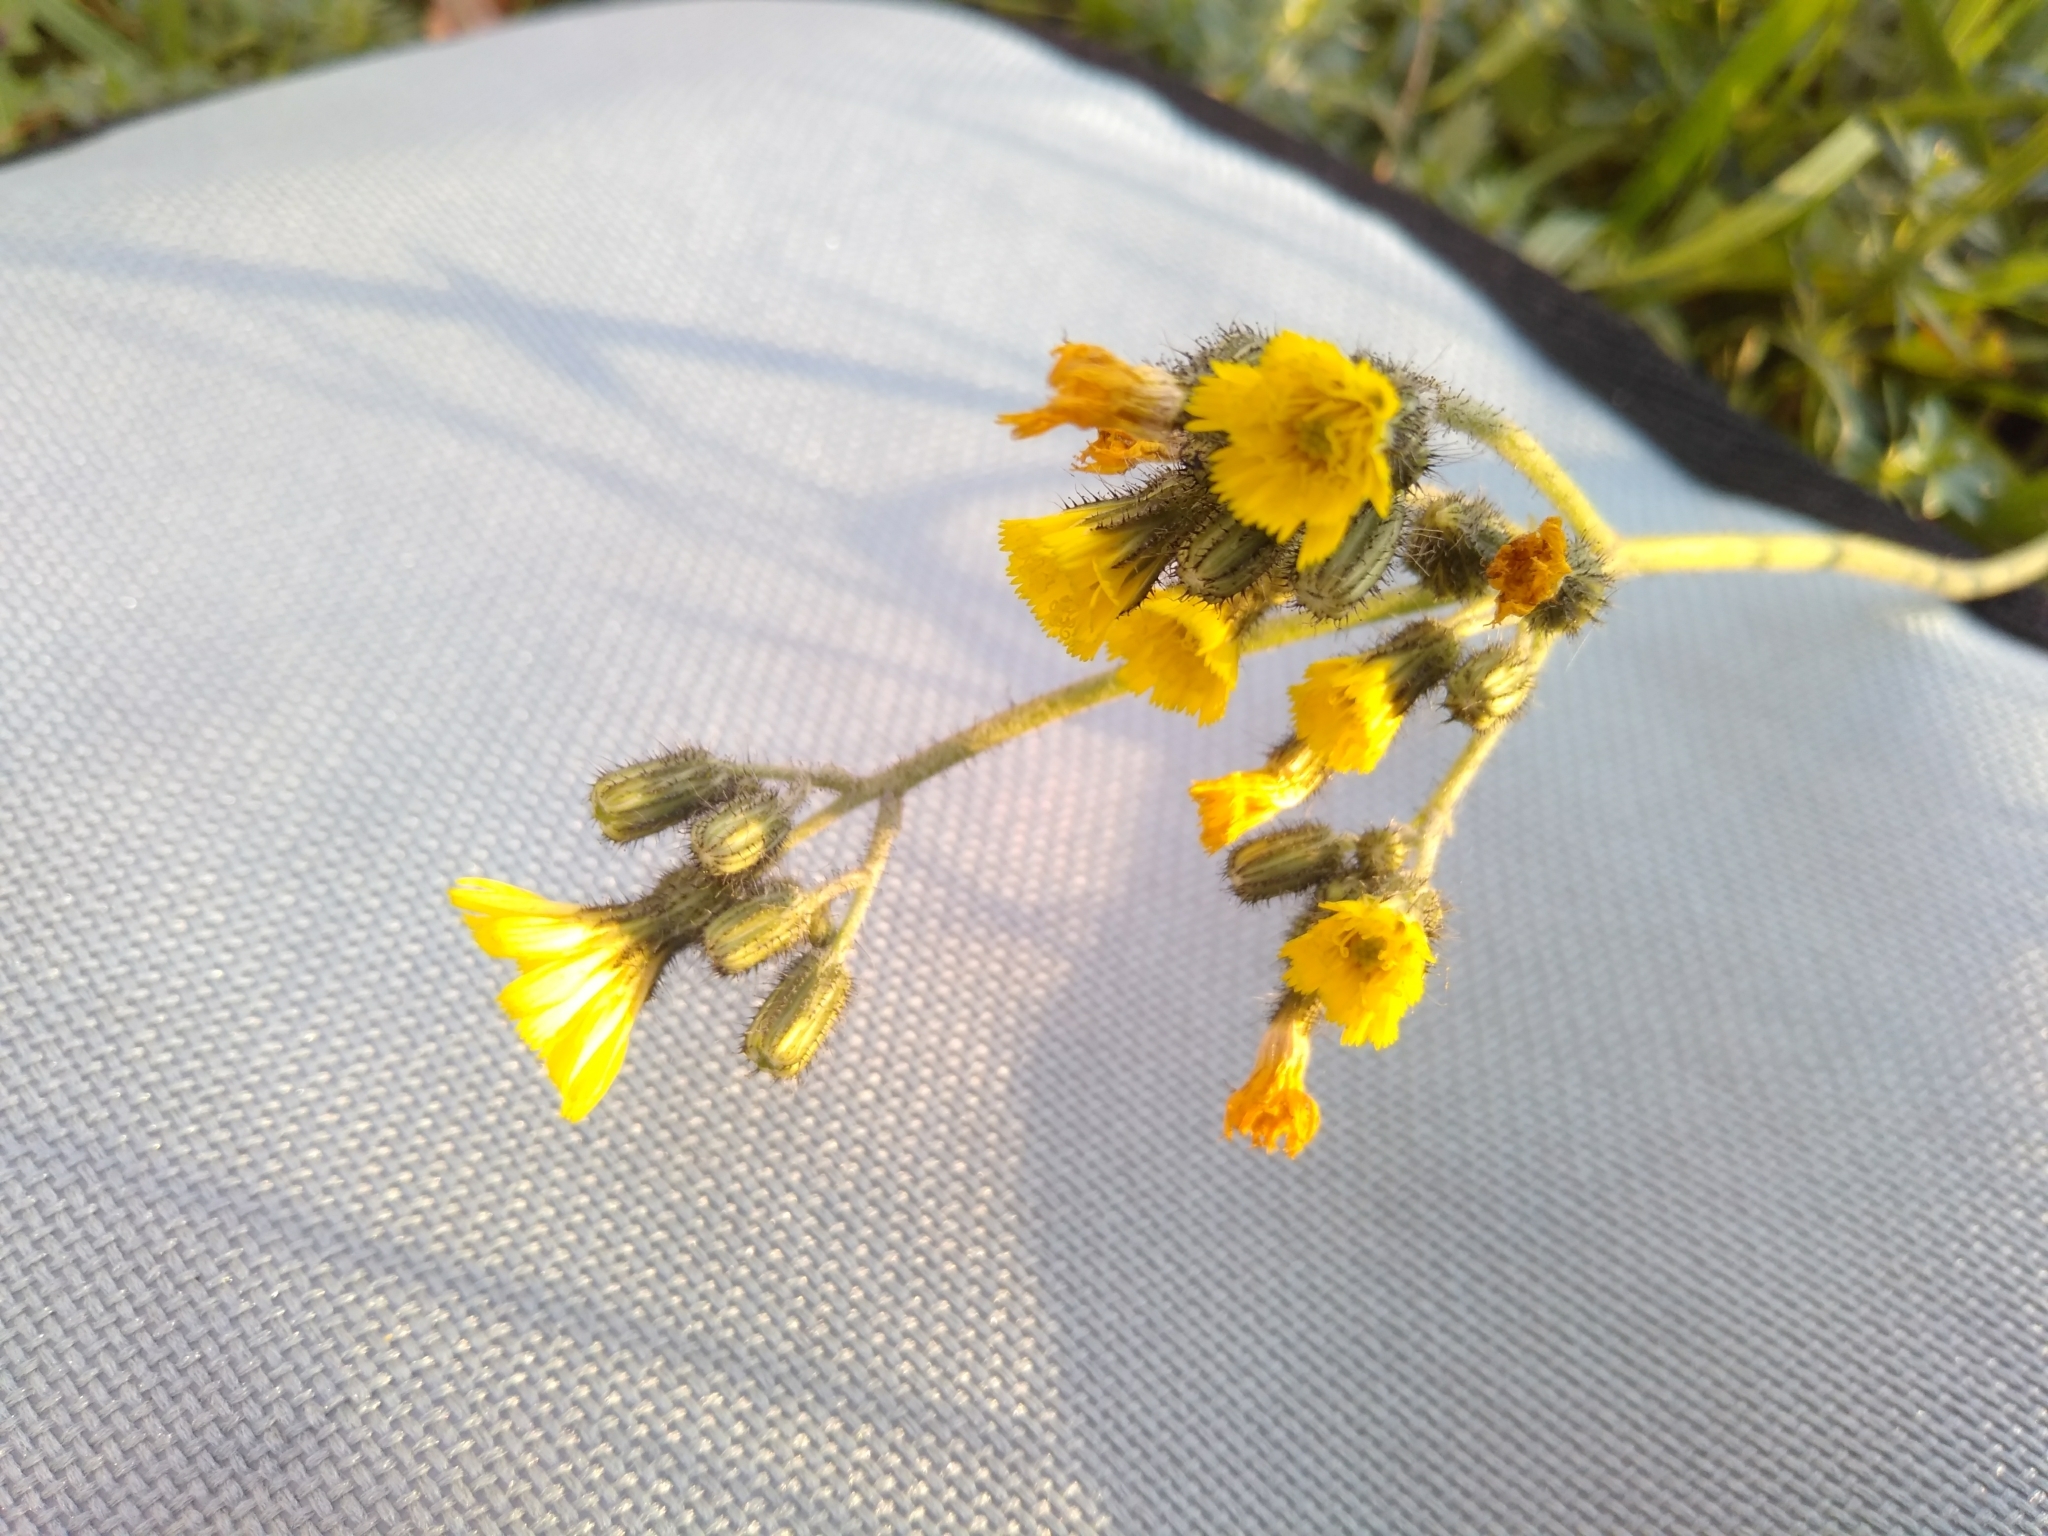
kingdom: Plantae
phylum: Tracheophyta
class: Magnoliopsida
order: Asterales
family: Asteraceae
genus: Pilosella
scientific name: Pilosella
